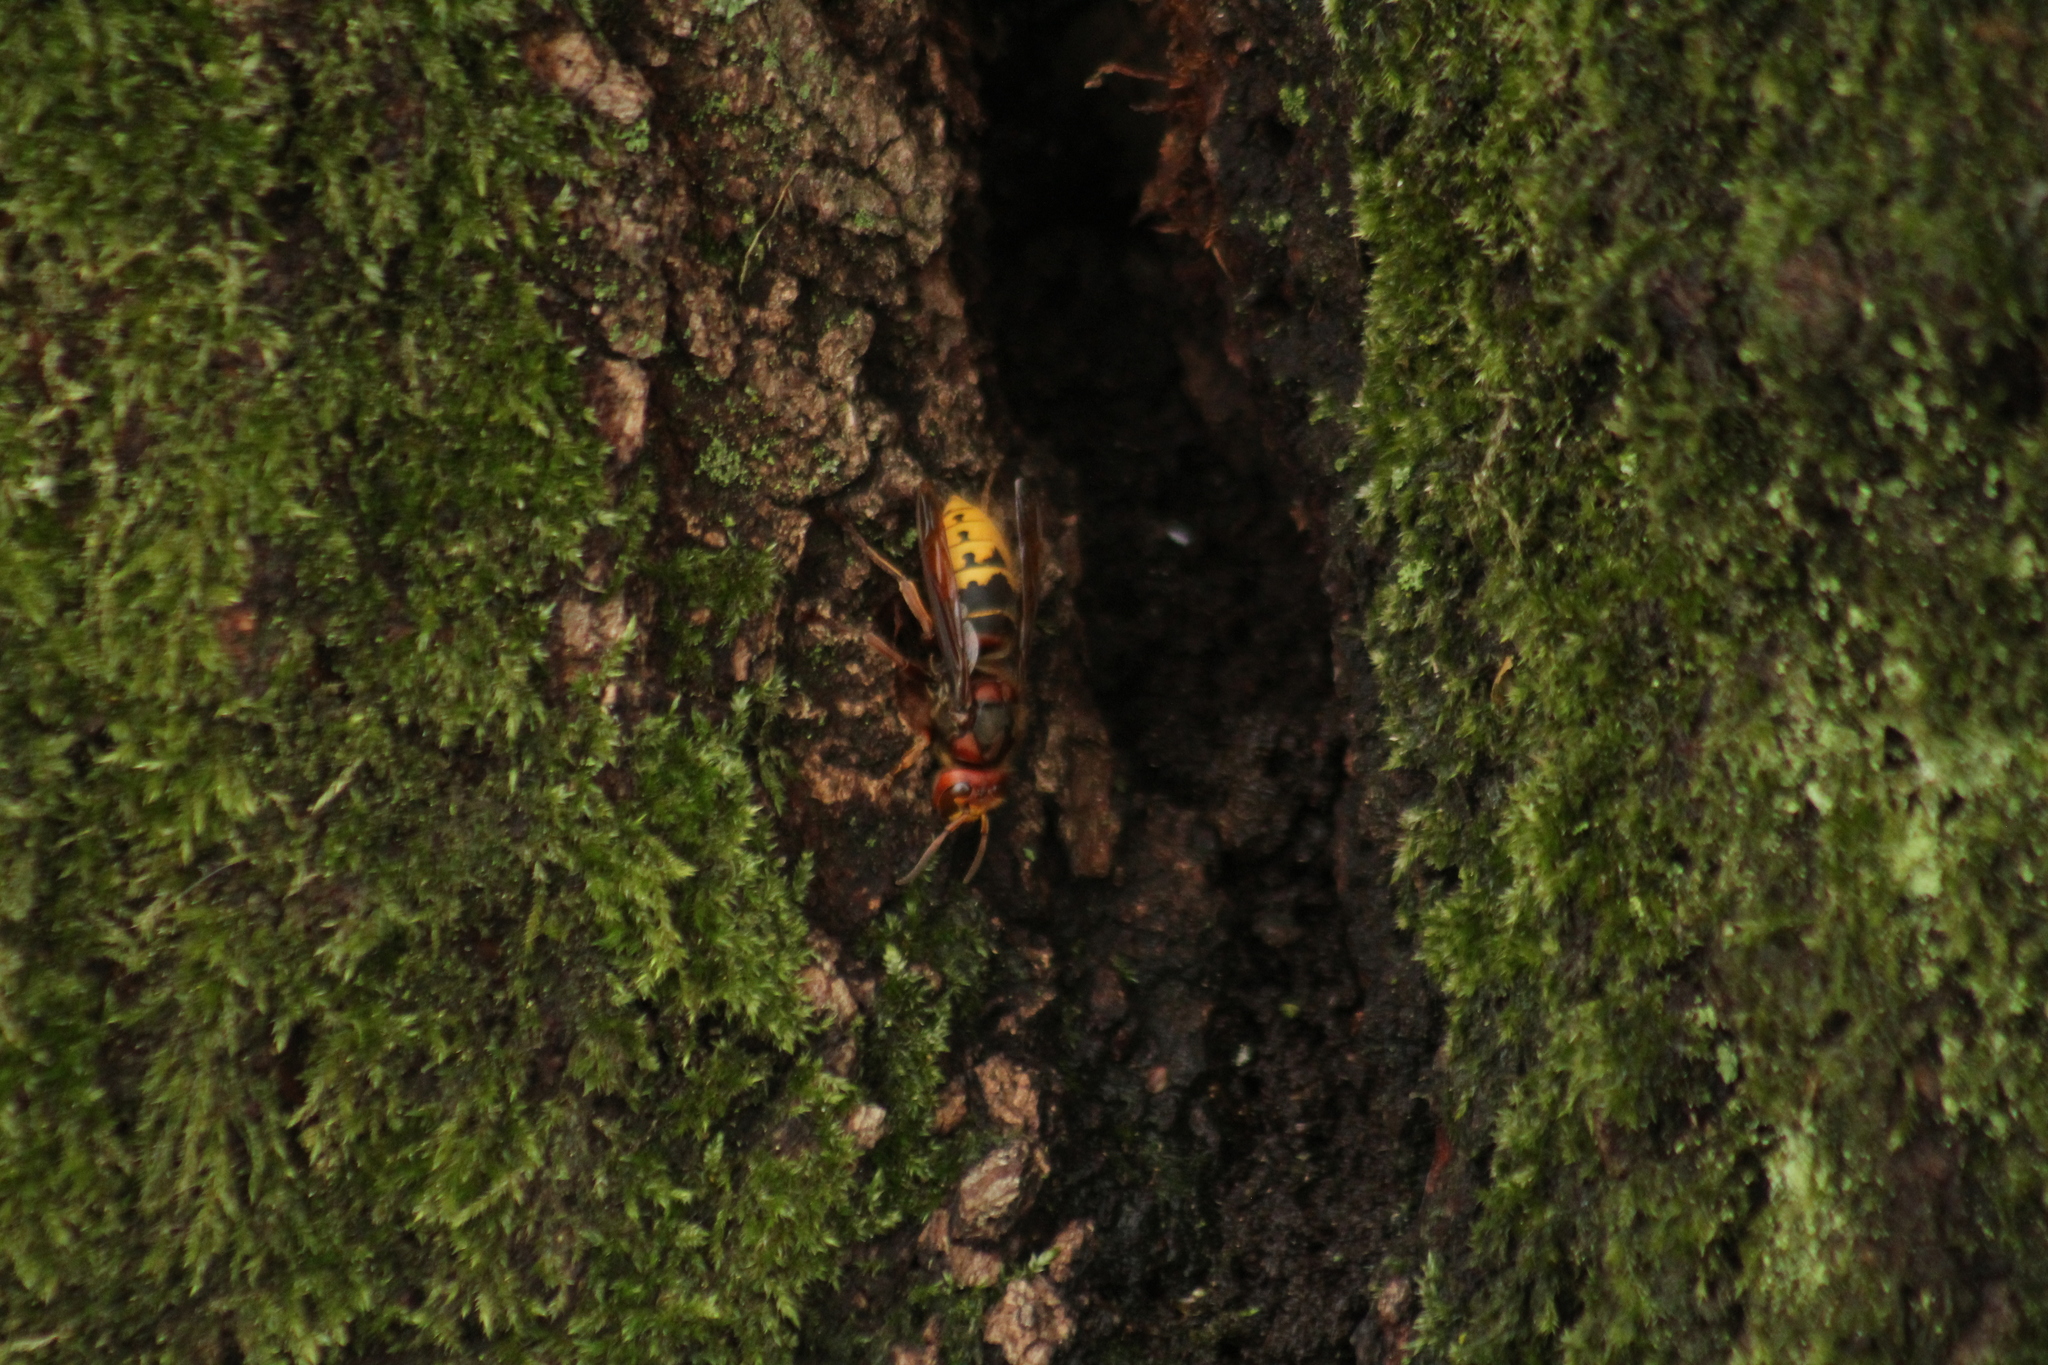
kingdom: Animalia
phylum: Arthropoda
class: Insecta
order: Hymenoptera
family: Vespidae
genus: Vespa
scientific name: Vespa crabro
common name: Hornet
